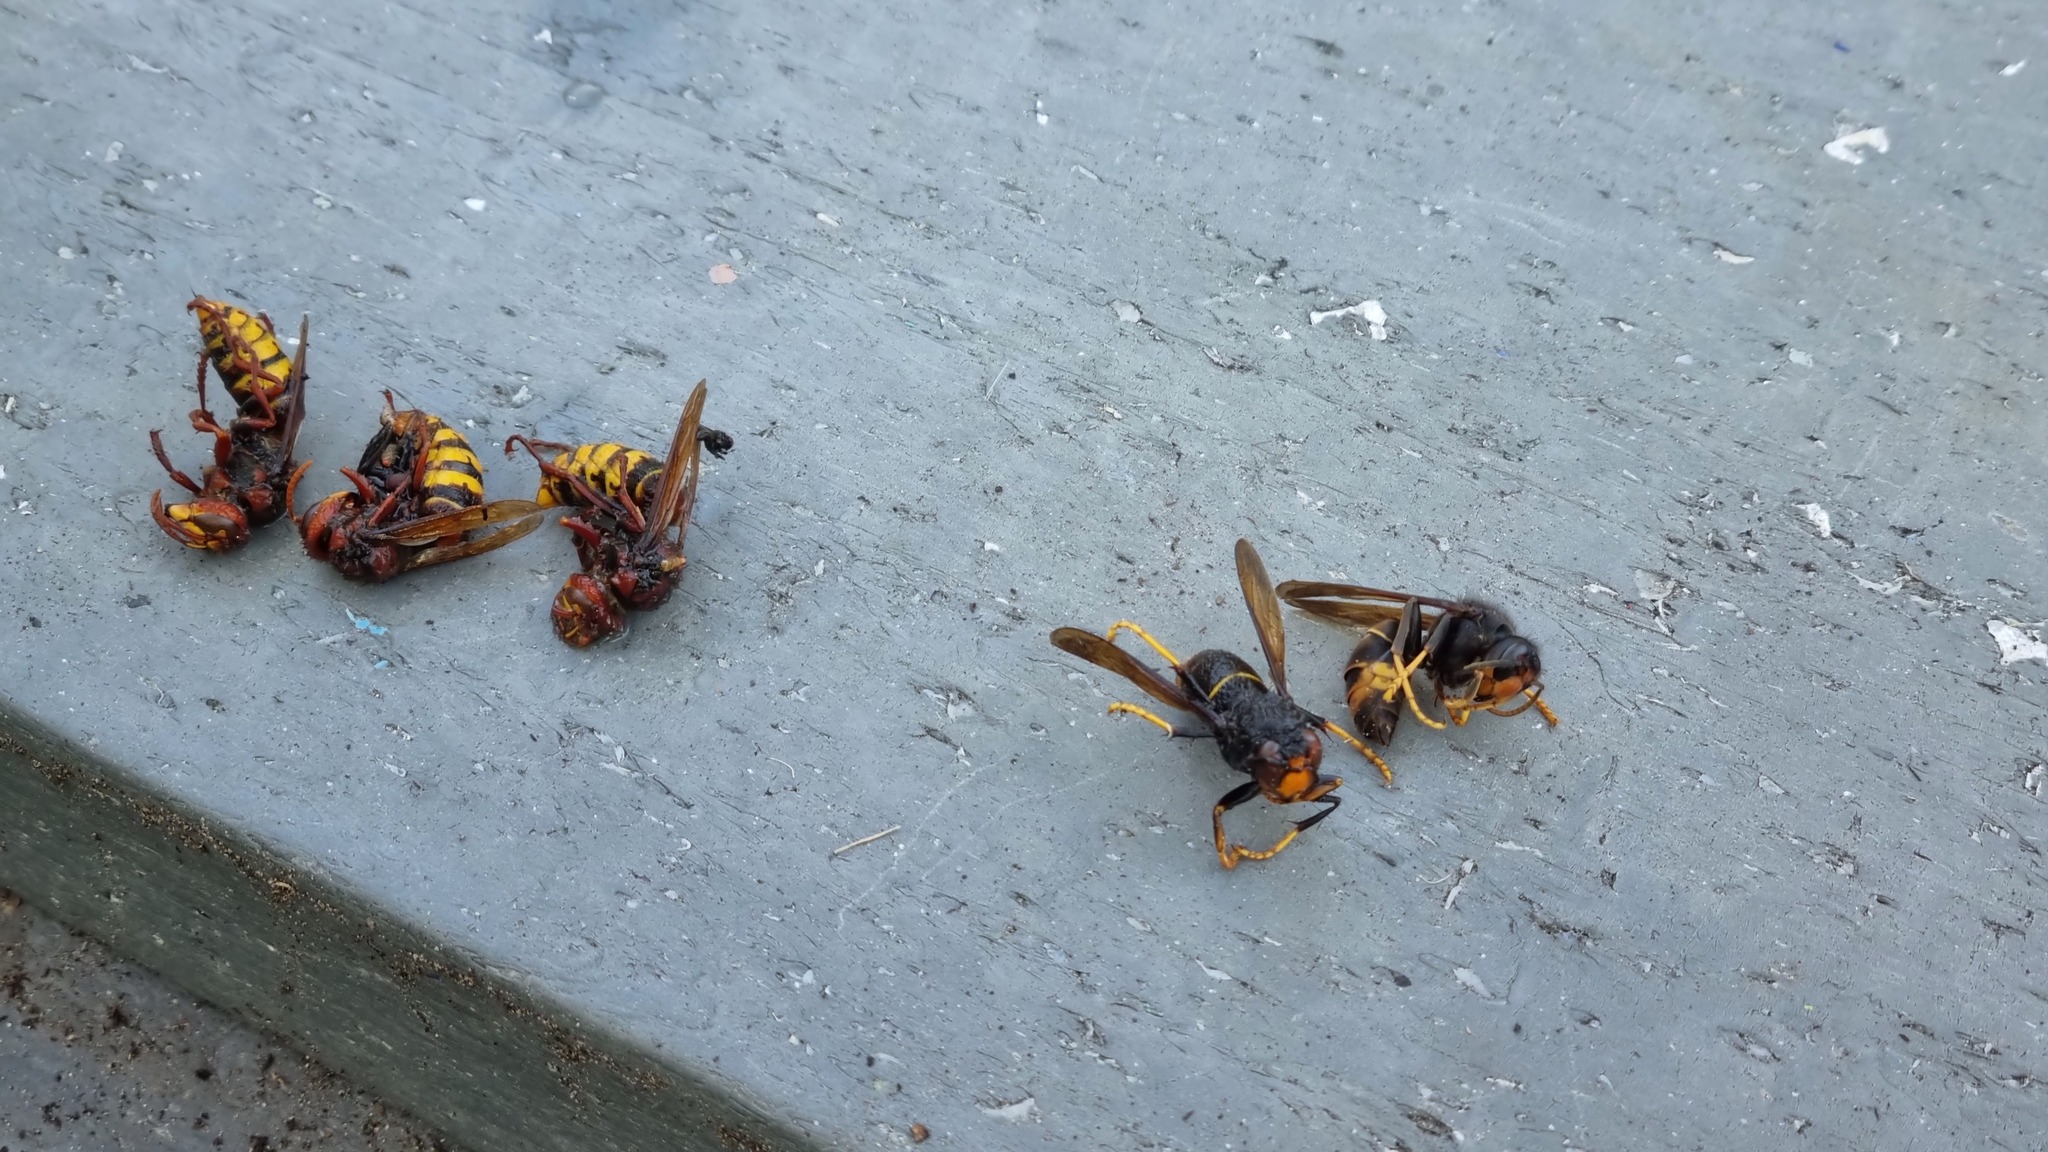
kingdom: Animalia
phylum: Arthropoda
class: Insecta
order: Hymenoptera
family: Vespidae
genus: Vespa
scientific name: Vespa velutina
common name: Asian hornet
